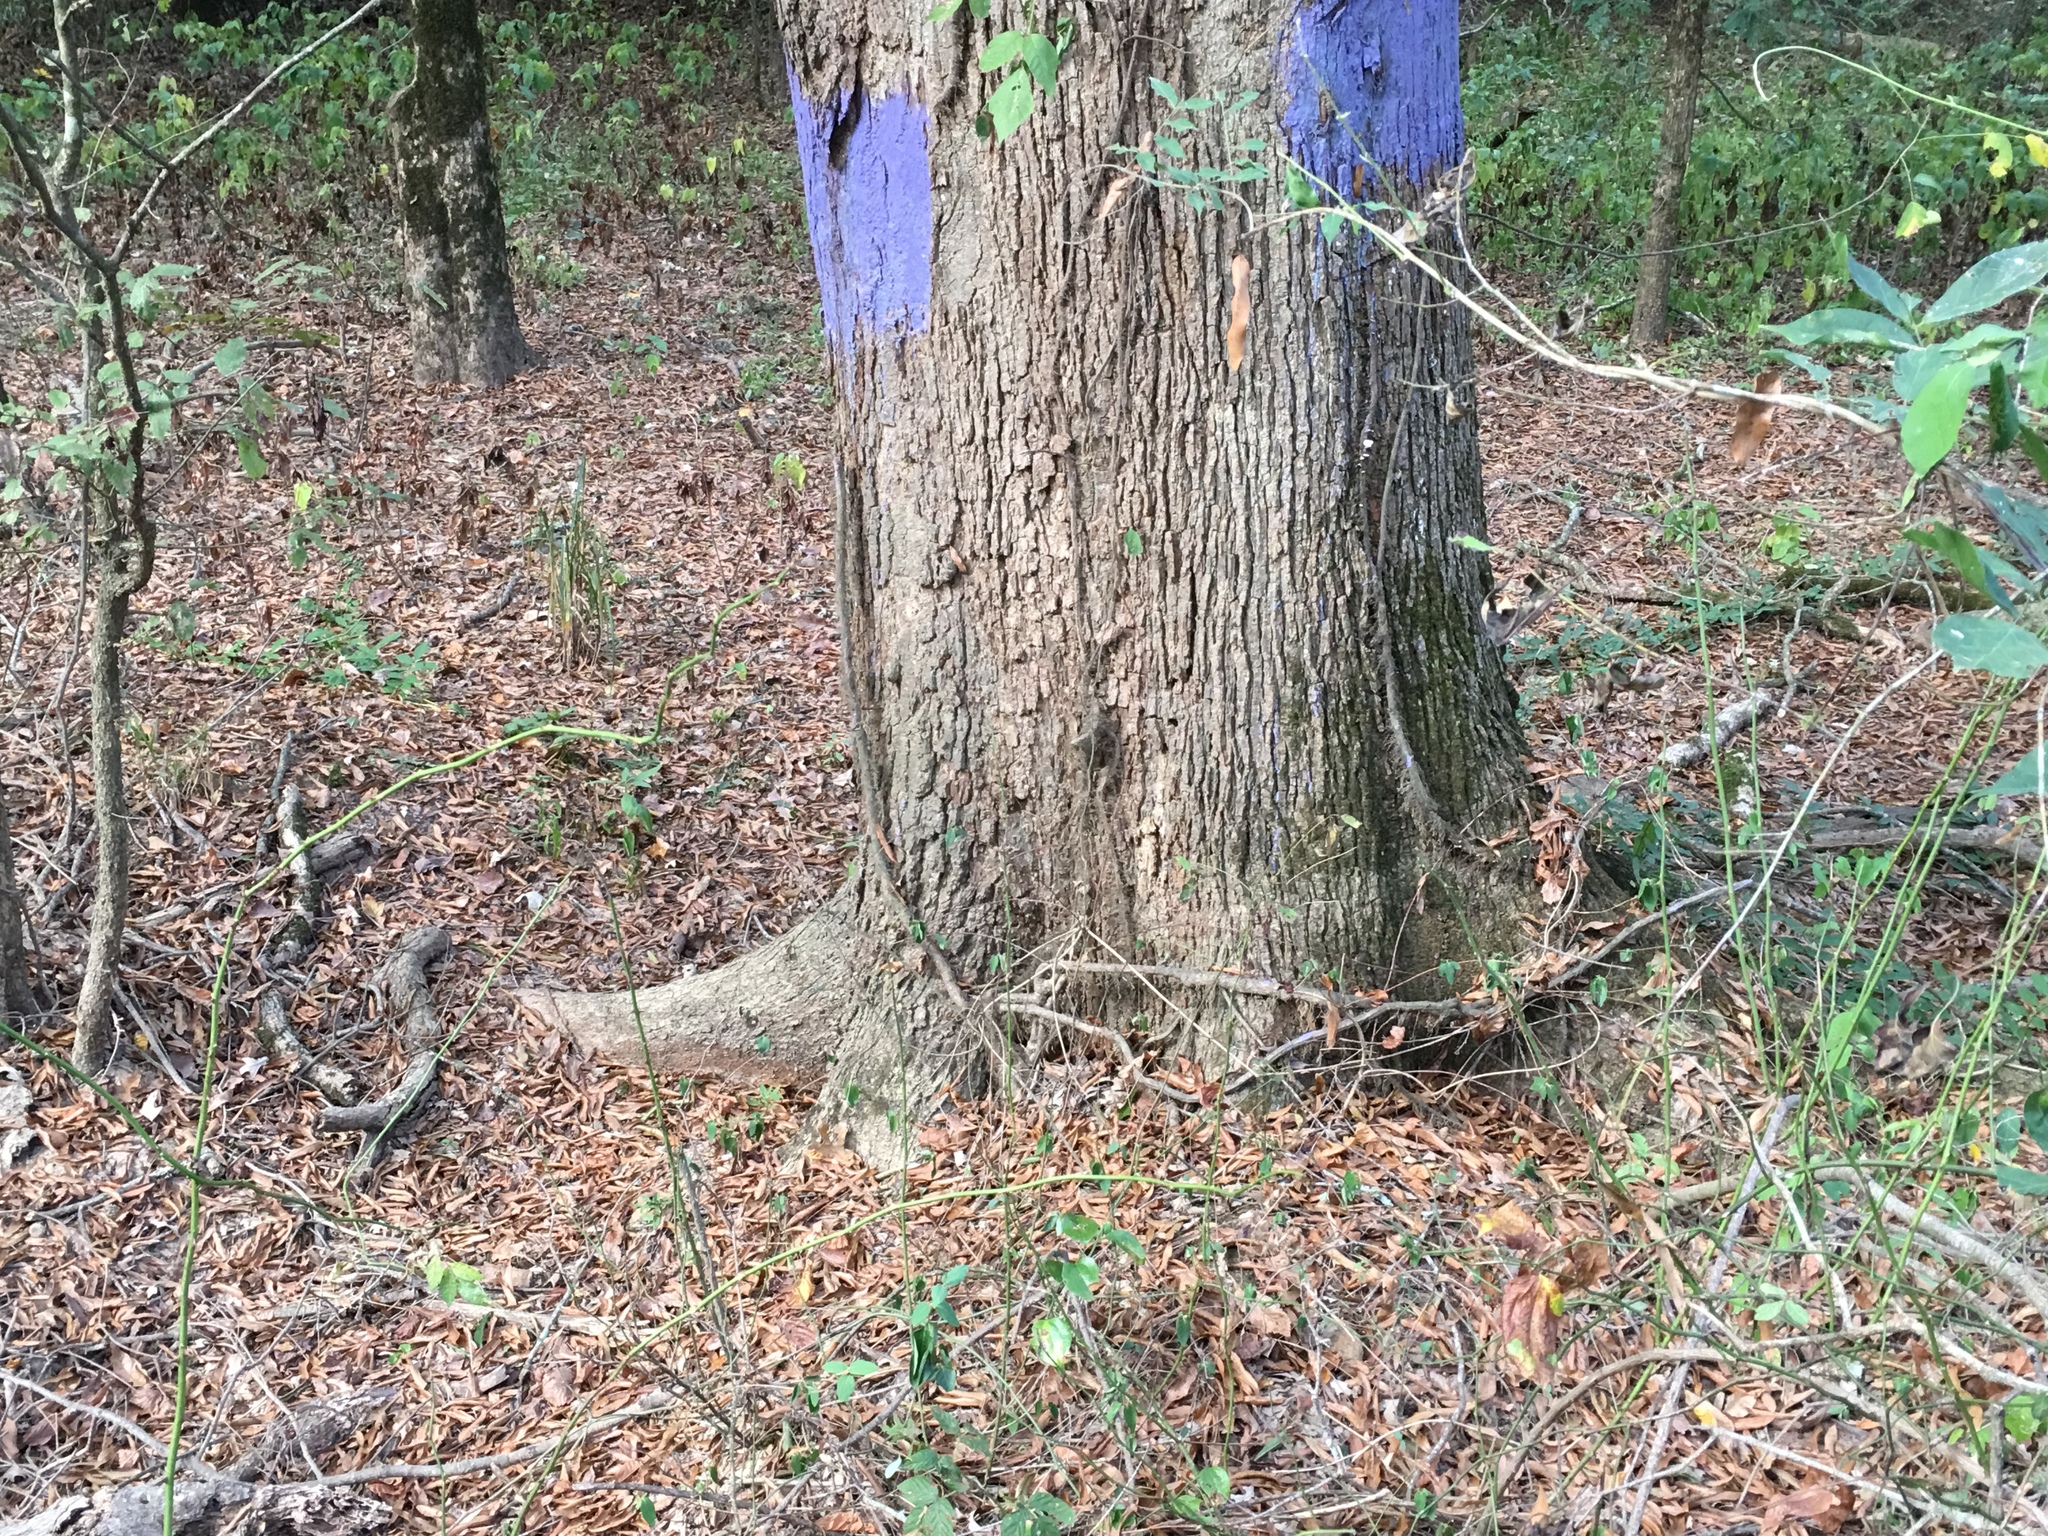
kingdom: Plantae
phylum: Tracheophyta
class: Magnoliopsida
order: Fagales
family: Fagaceae
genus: Quercus
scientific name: Quercus lyrata
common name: Overcup oak
